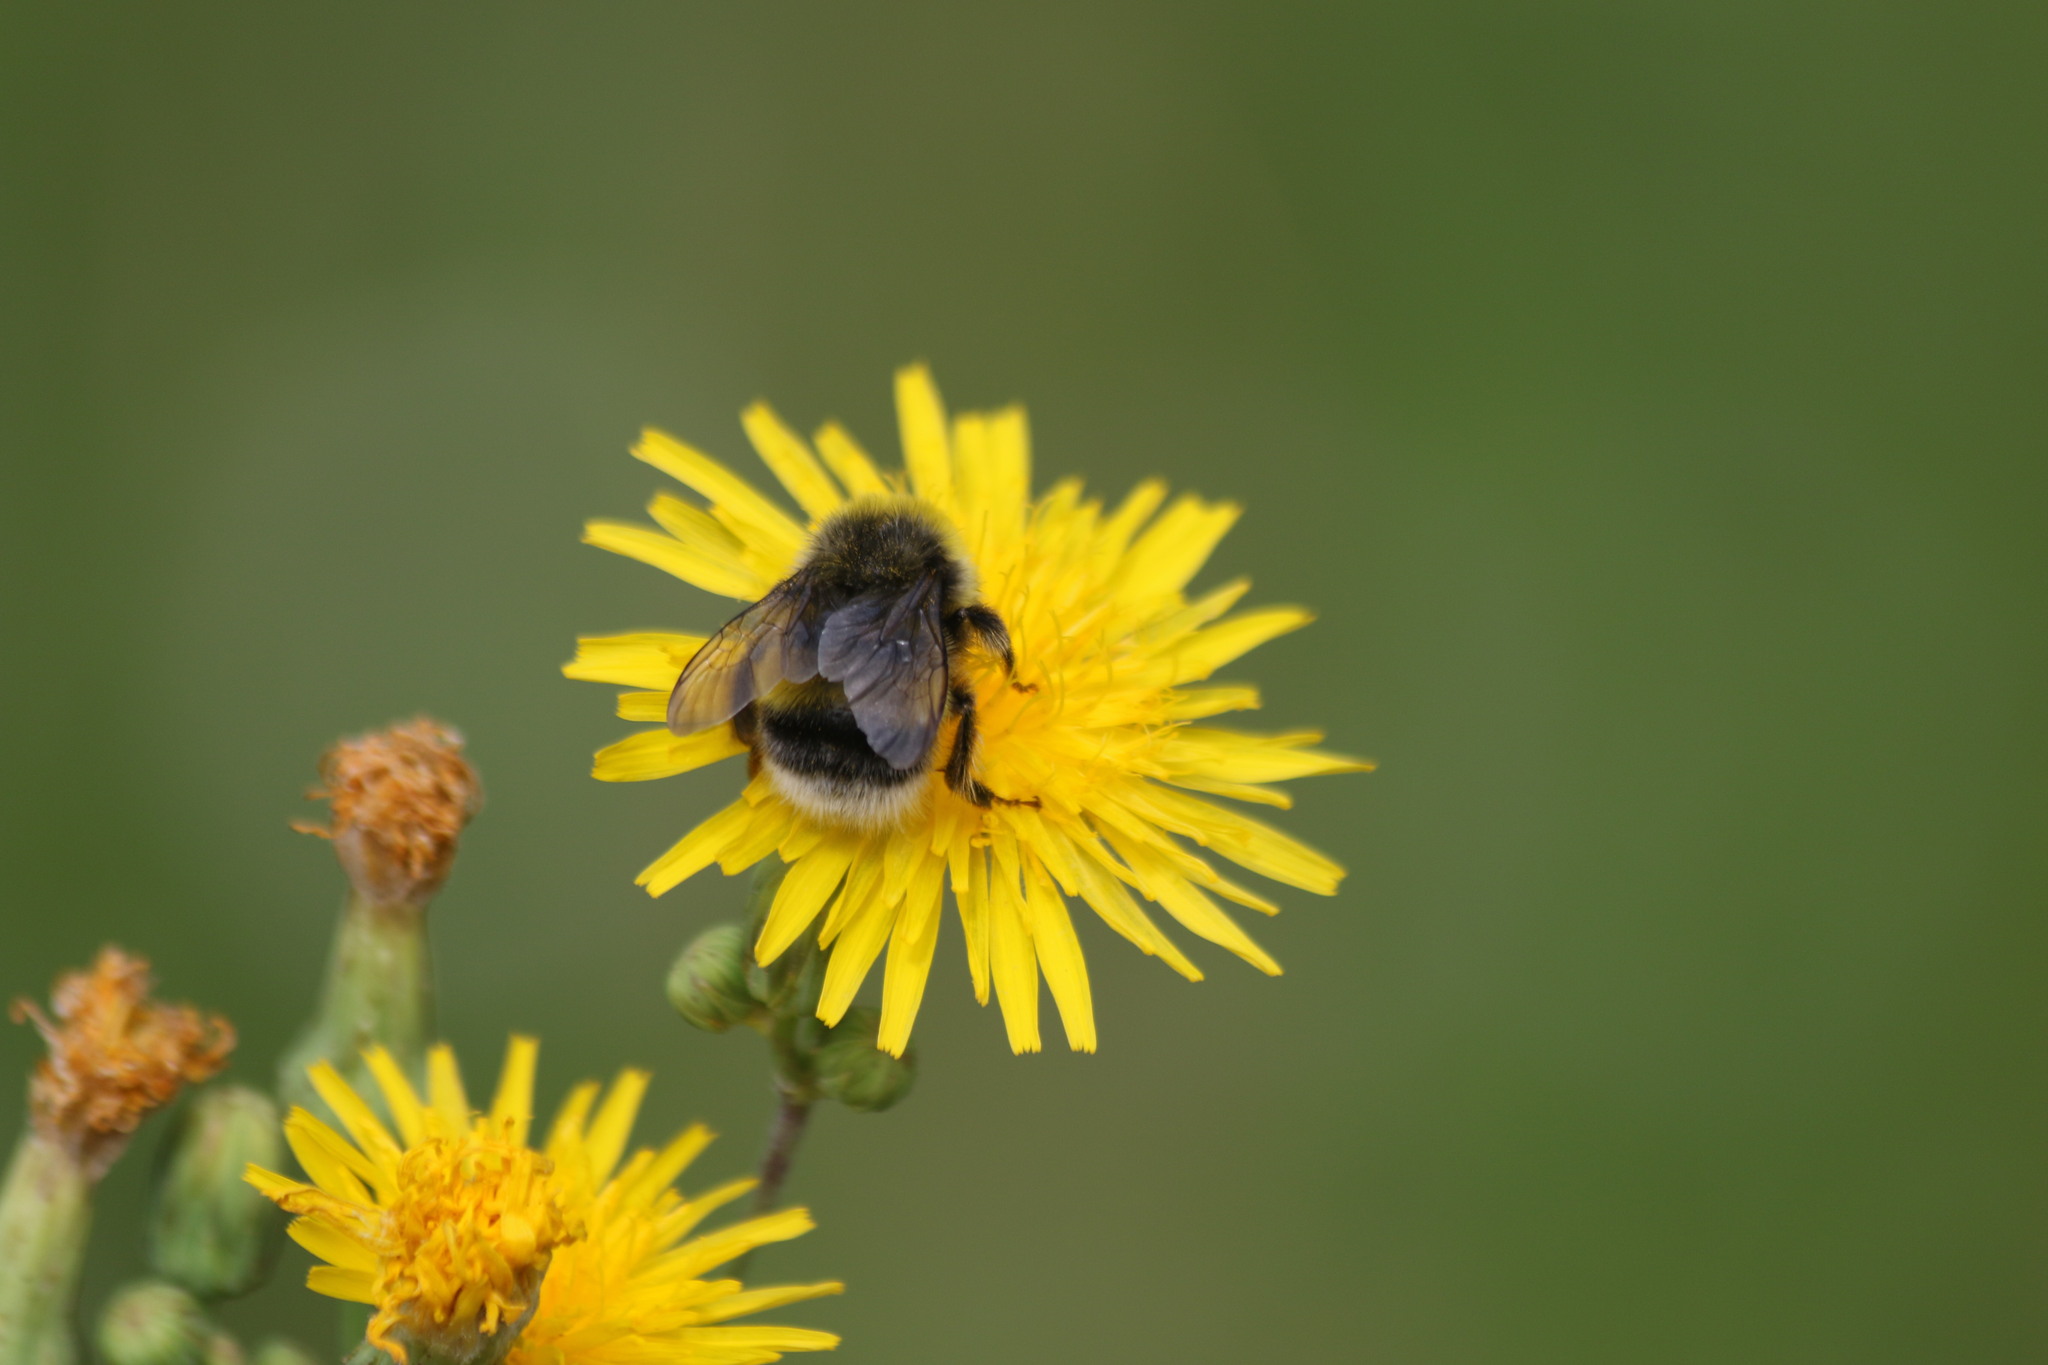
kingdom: Animalia
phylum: Arthropoda
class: Insecta
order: Hymenoptera
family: Apidae
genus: Bombus
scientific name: Bombus lucorum
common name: White-tailed bumblebee
